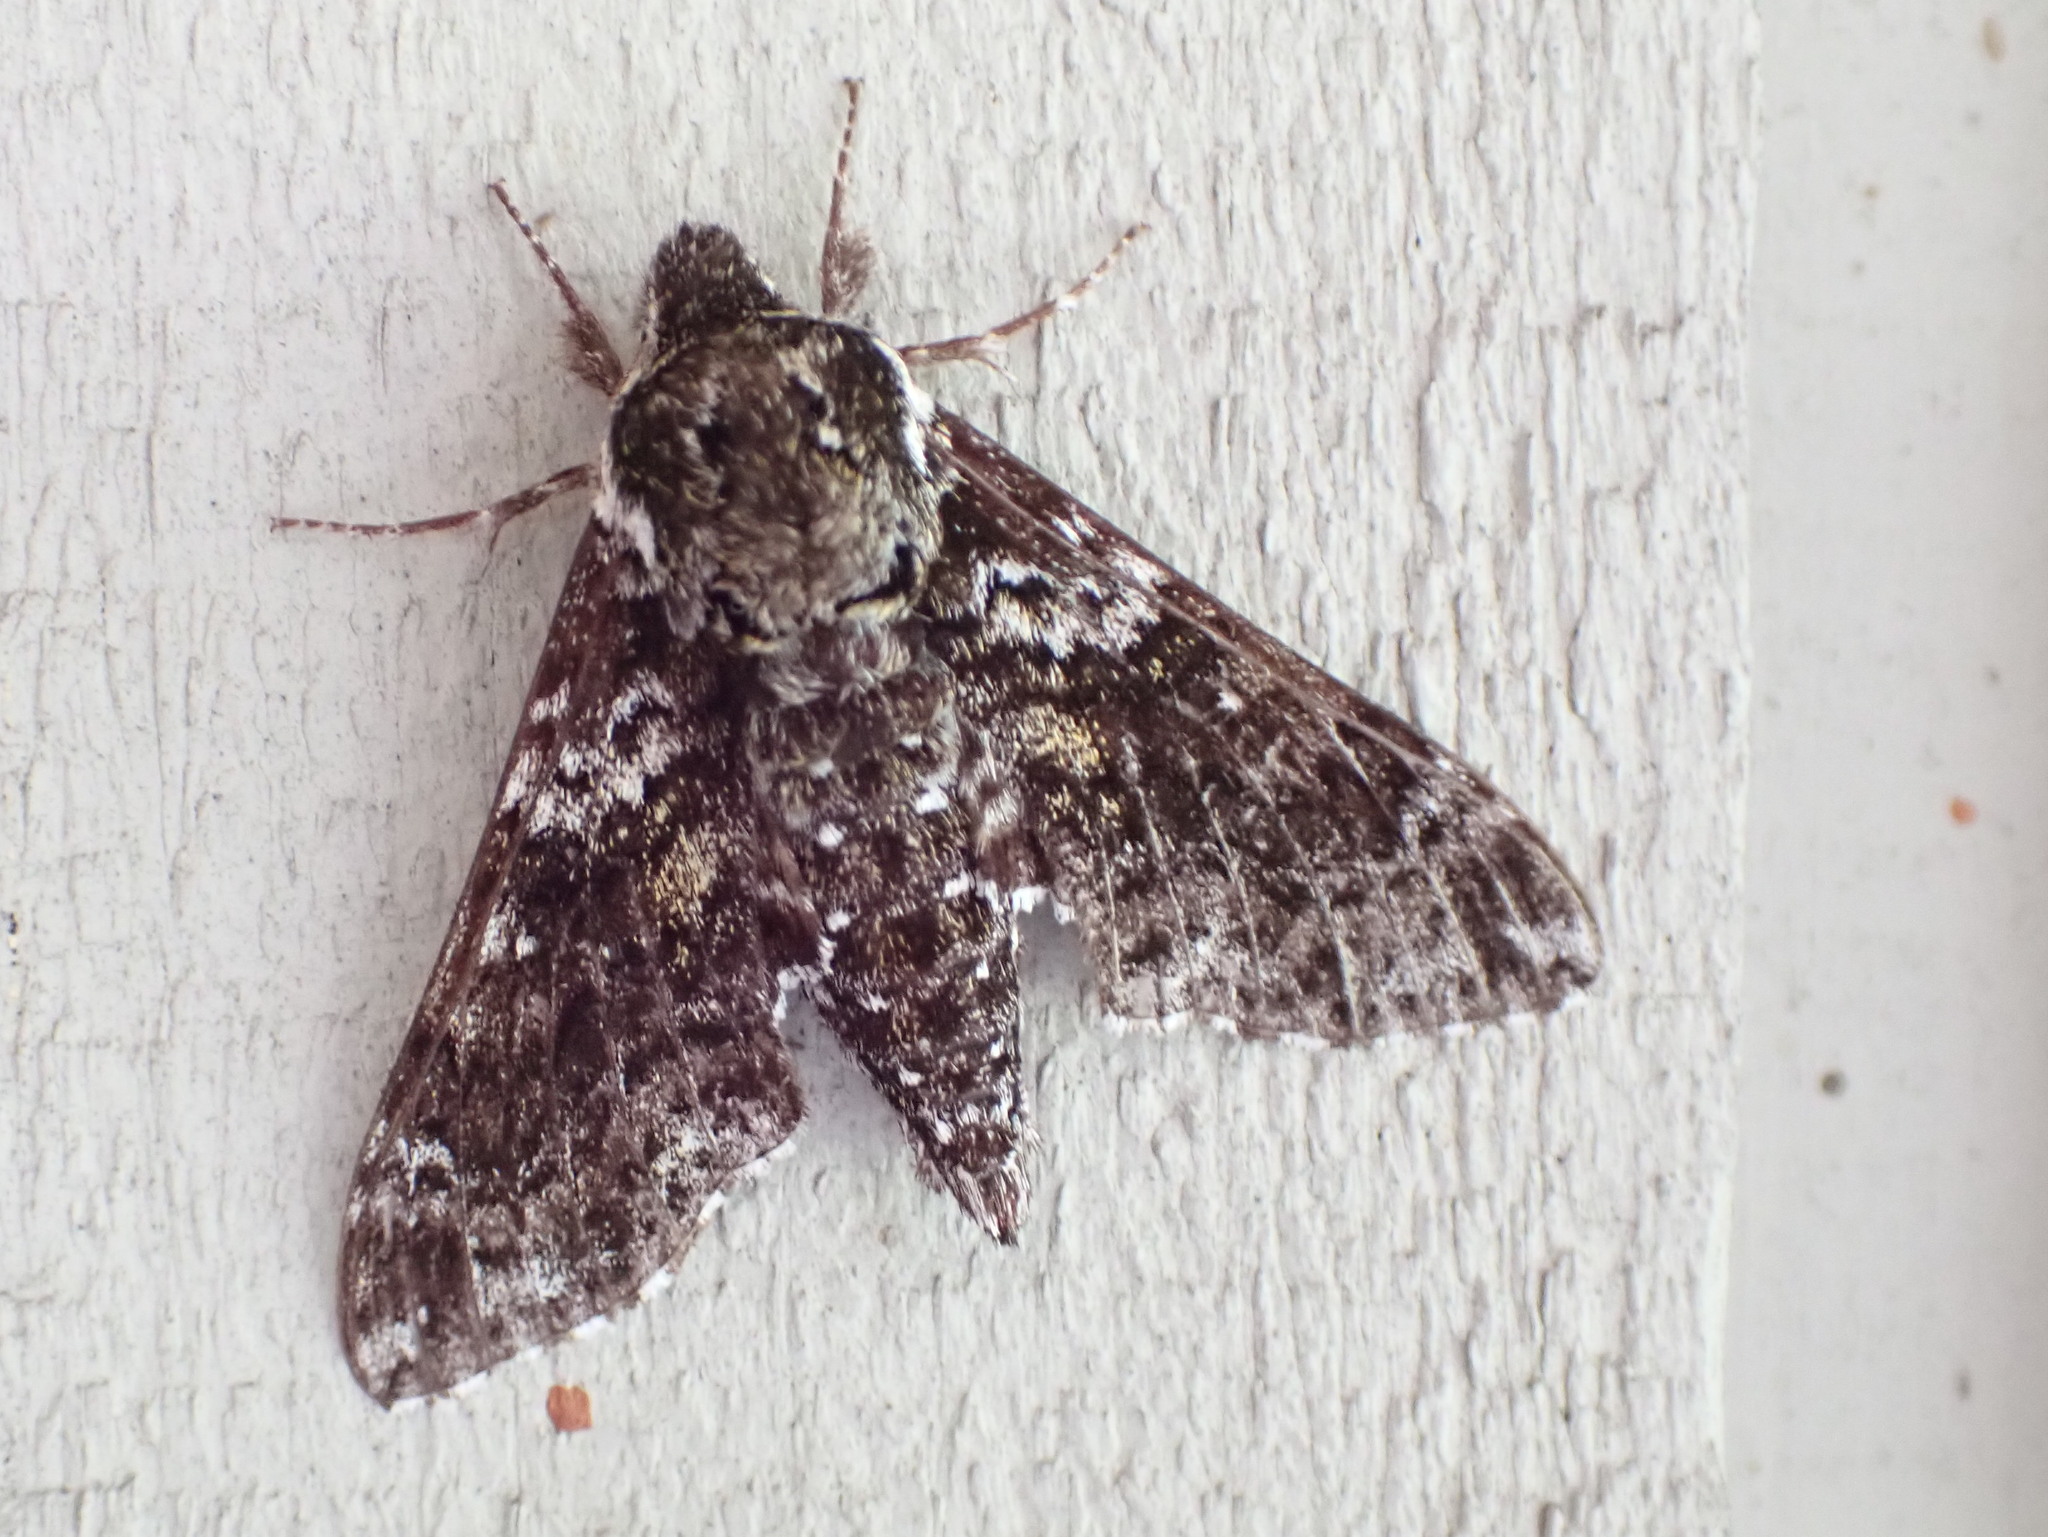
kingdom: Animalia
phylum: Arthropoda
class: Insecta
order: Lepidoptera
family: Sphingidae
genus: Dolba
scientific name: Dolba hyloeus
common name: Pawpaw sphinx
